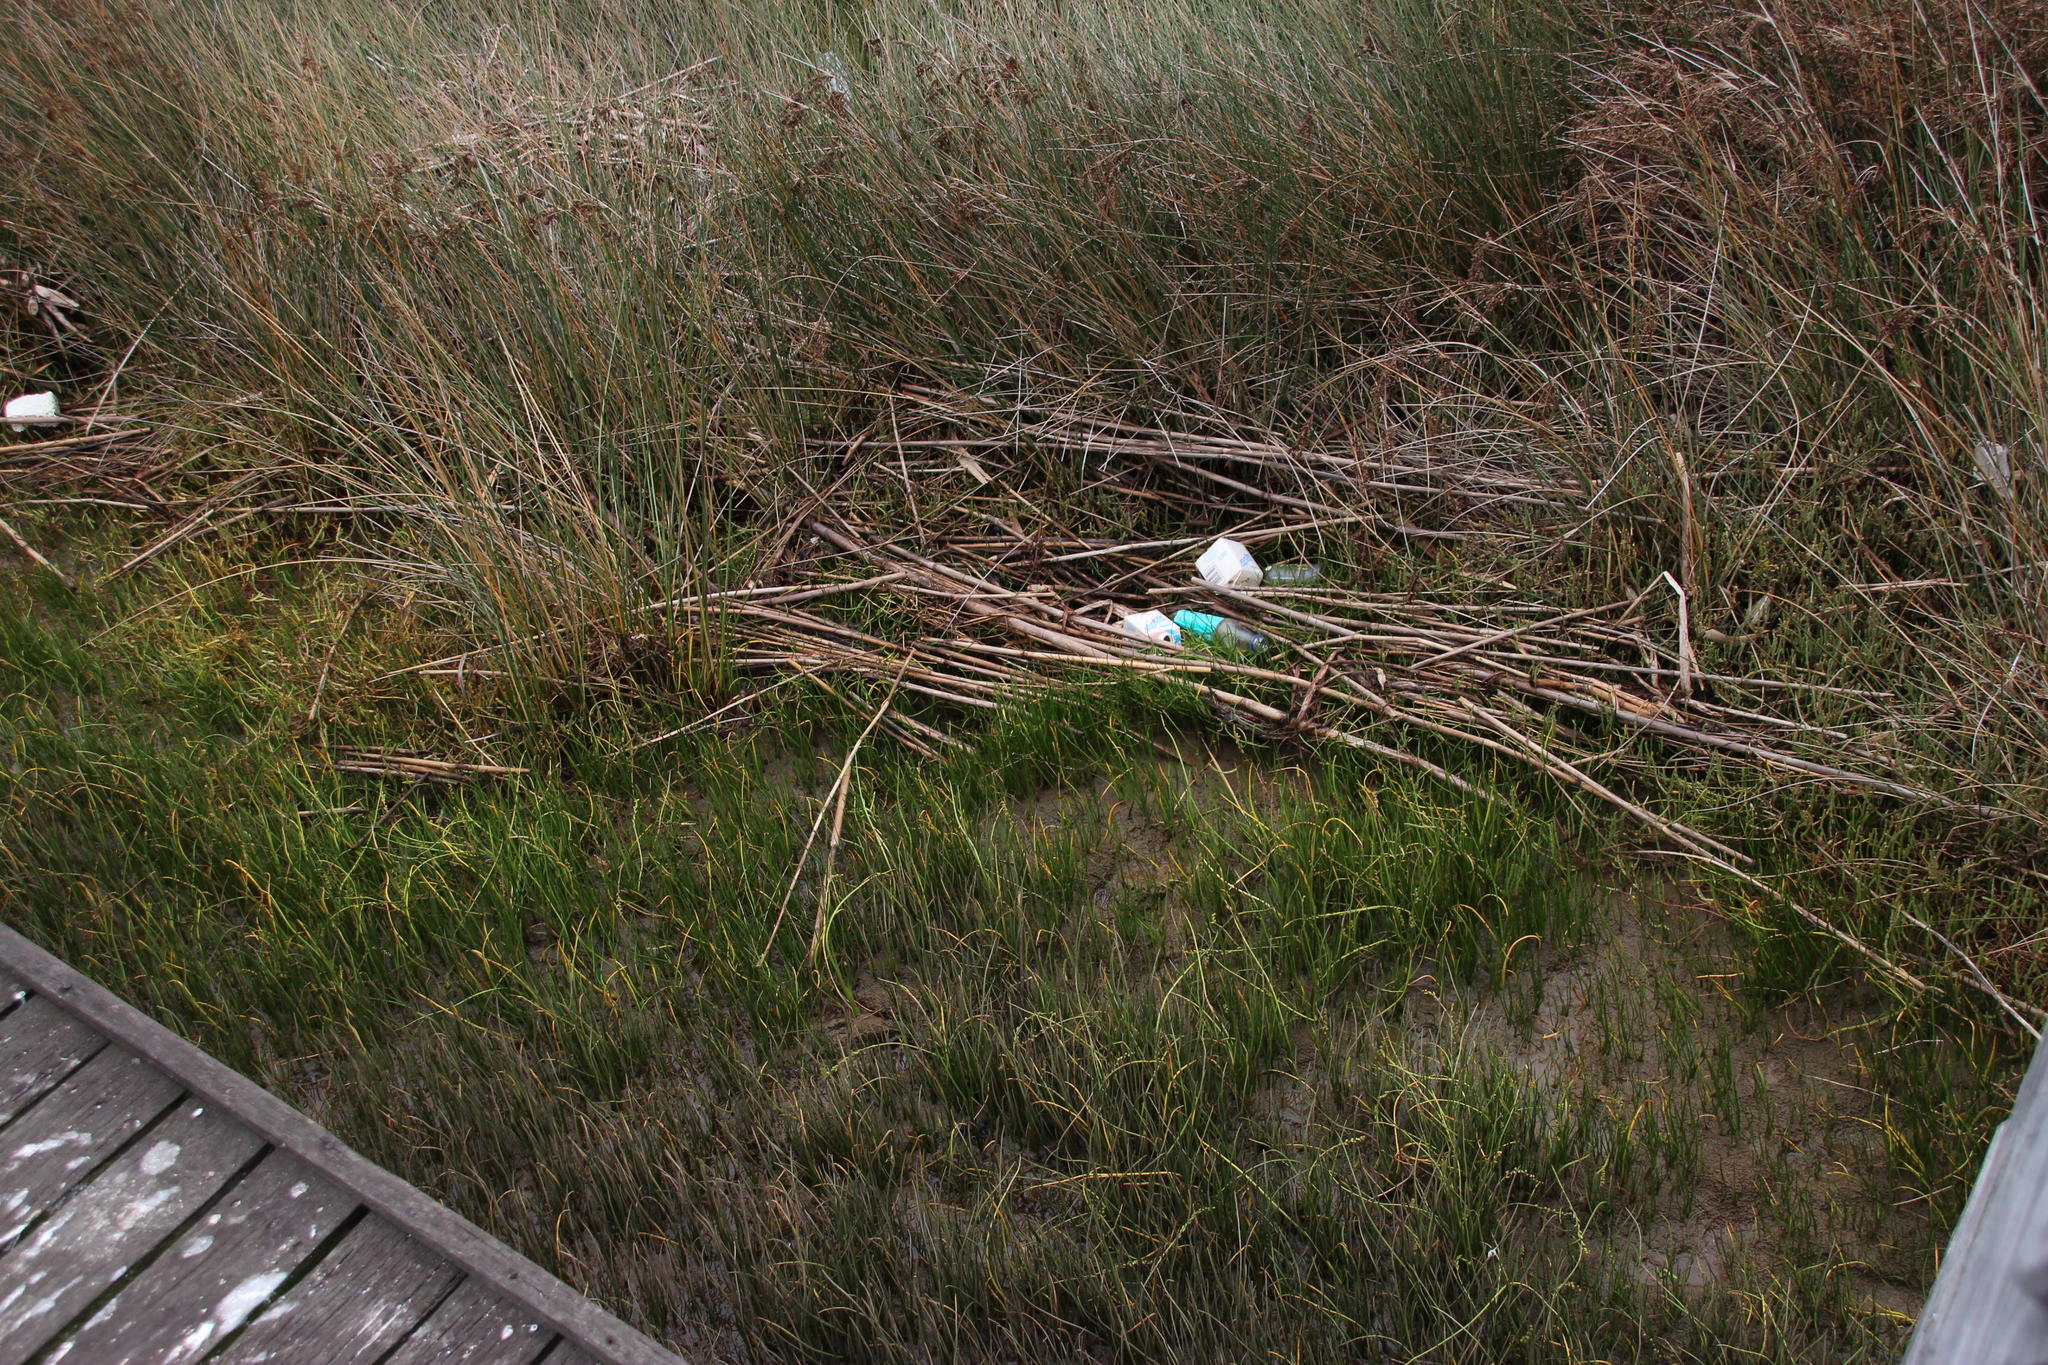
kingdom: Plantae
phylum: Tracheophyta
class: Liliopsida
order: Alismatales
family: Juncaginaceae
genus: Triglochin
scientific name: Triglochin striata
